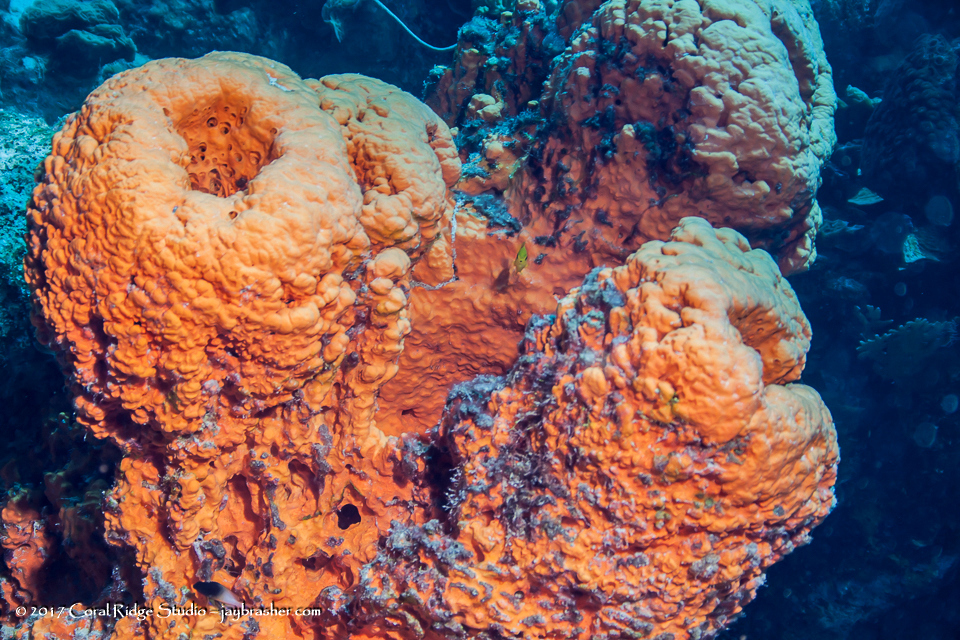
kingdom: Animalia
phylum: Porifera
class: Demospongiae
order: Agelasida
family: Agelasidae
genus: Agelas
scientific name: Agelas clathrodes
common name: Orange elephant ear sponge
